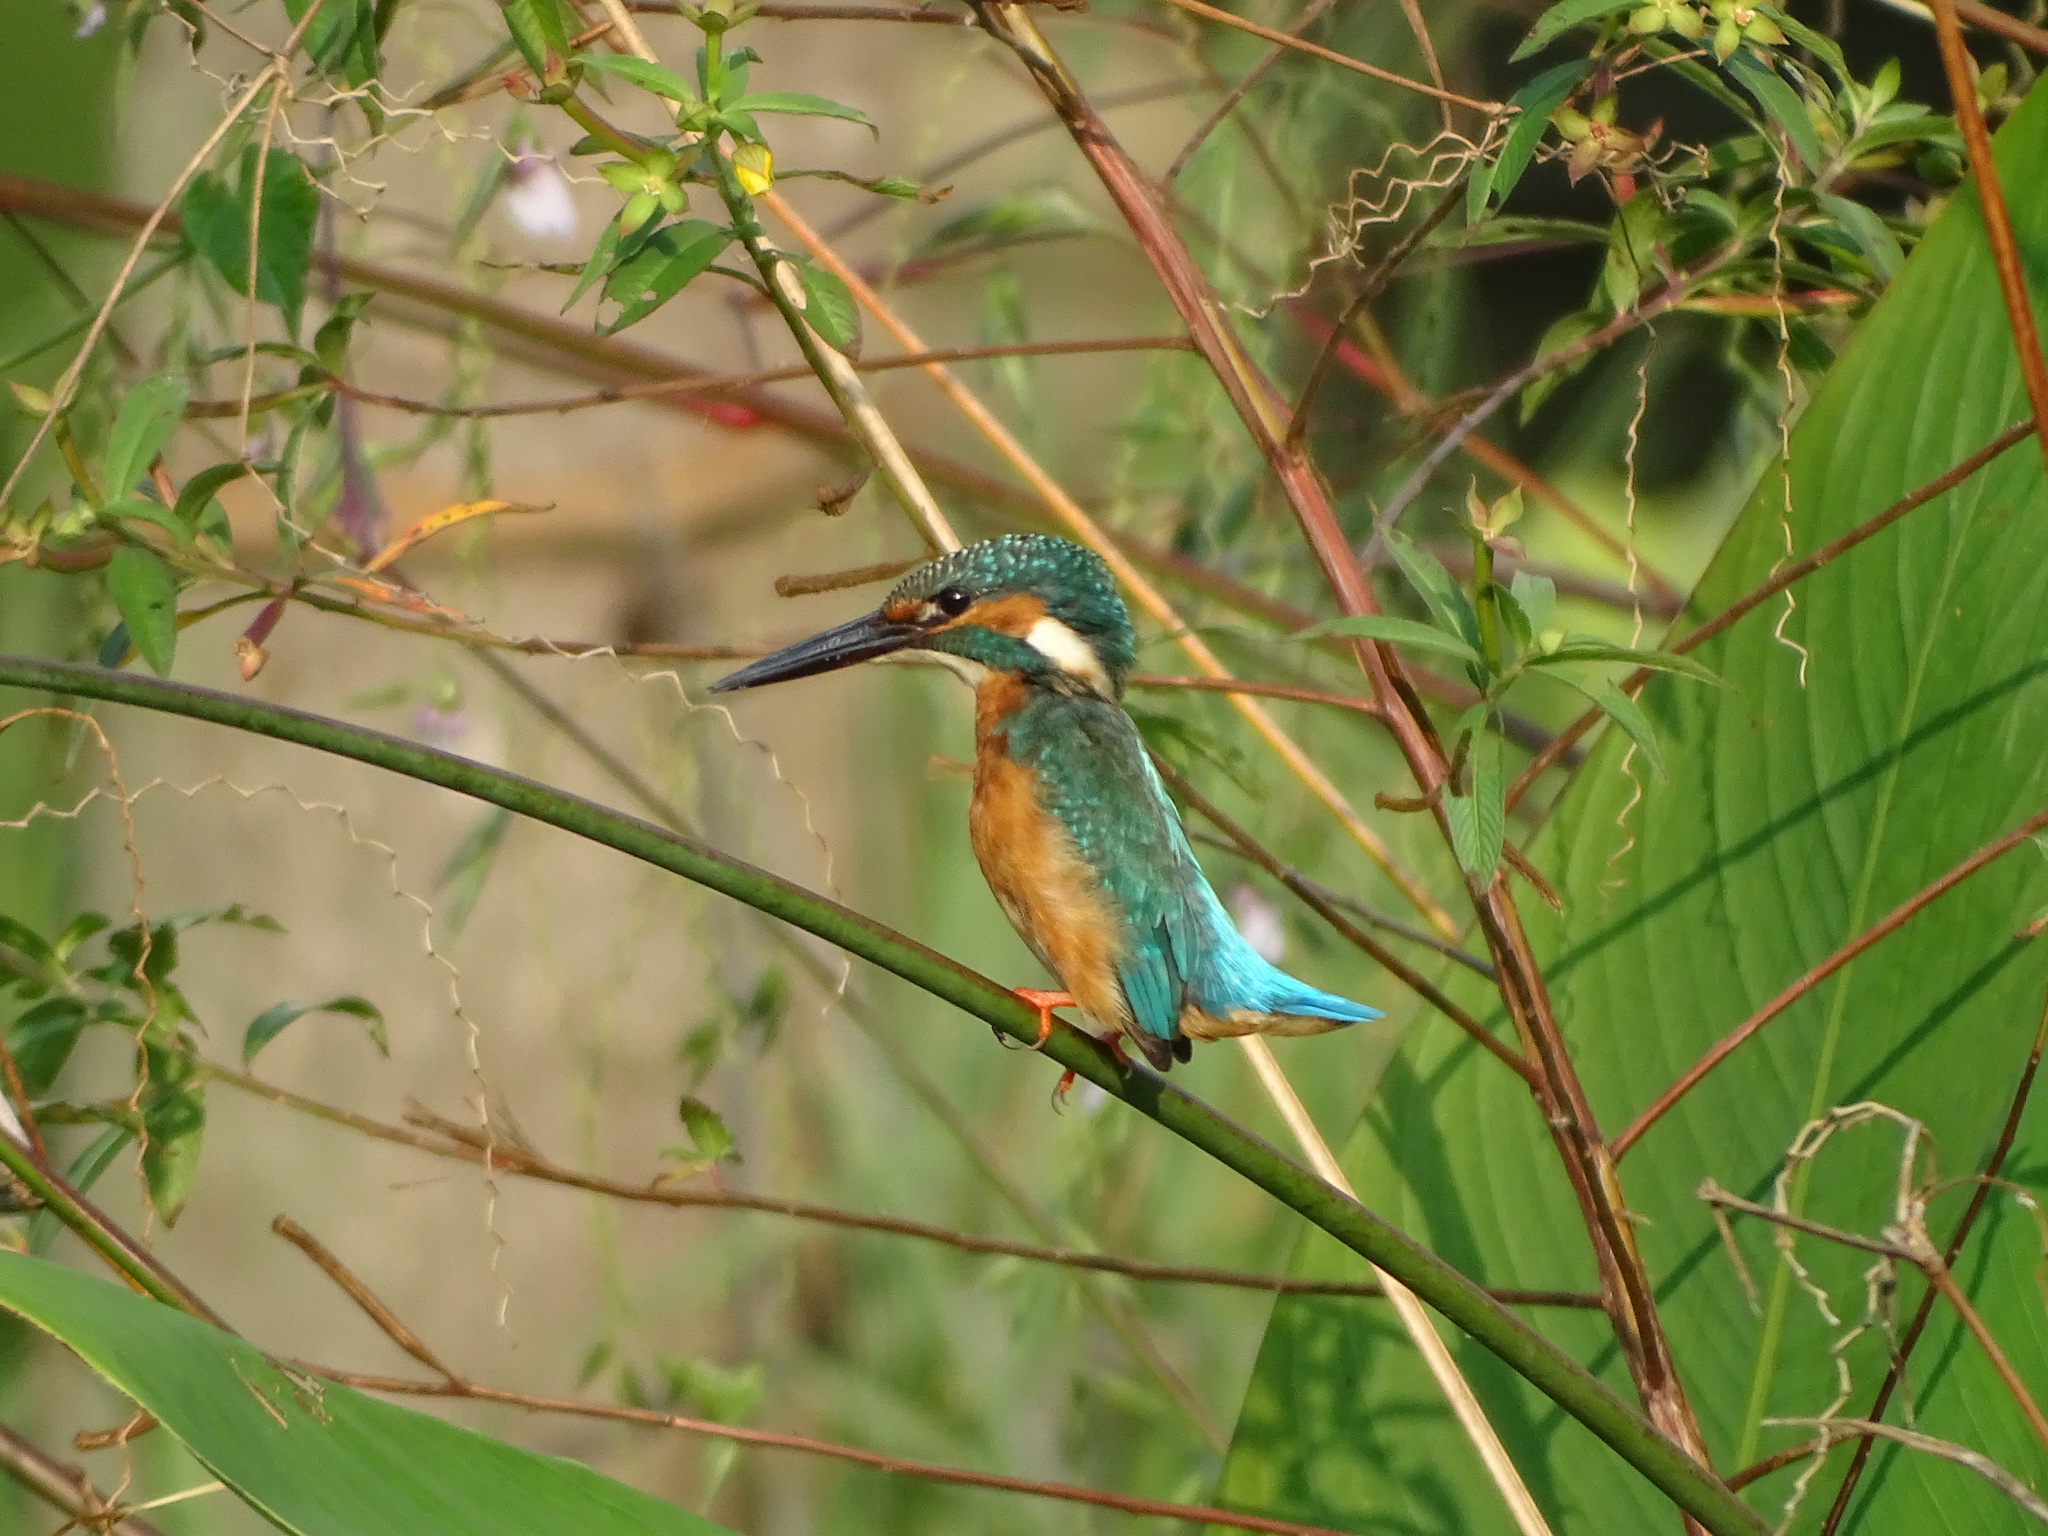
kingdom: Animalia
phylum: Chordata
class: Aves
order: Coraciiformes
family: Alcedinidae
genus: Alcedo
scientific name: Alcedo atthis
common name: Common kingfisher
